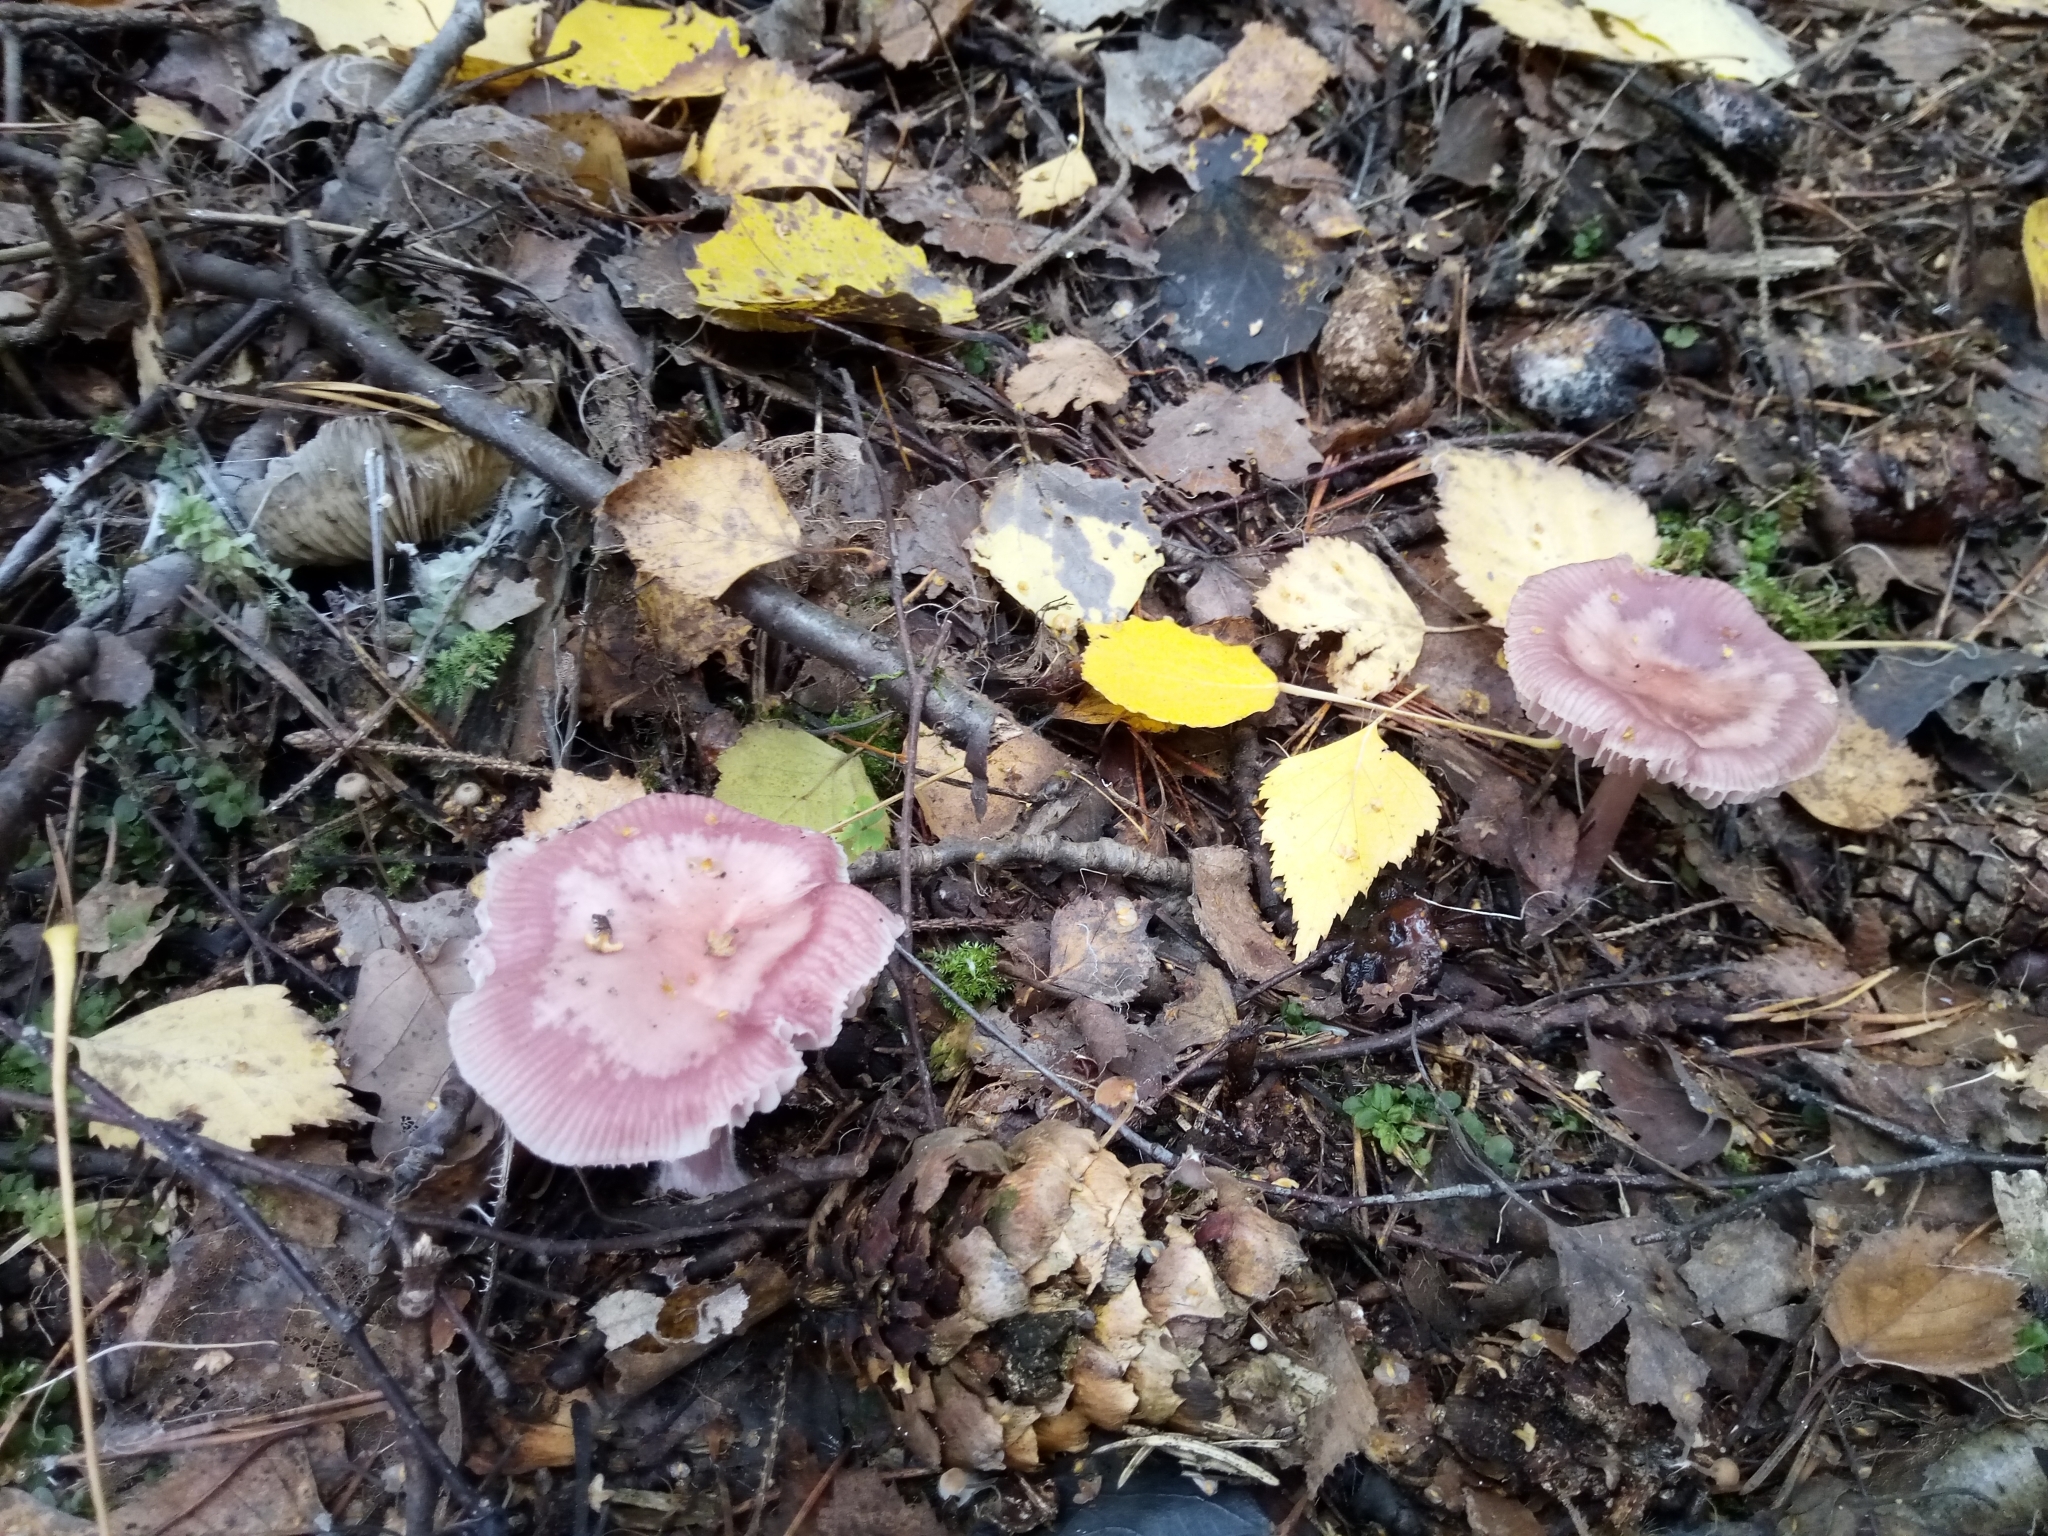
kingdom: Fungi
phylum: Basidiomycota
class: Agaricomycetes
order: Agaricales
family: Mycenaceae
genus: Mycena
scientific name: Mycena rosea
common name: Rosy bonnet
